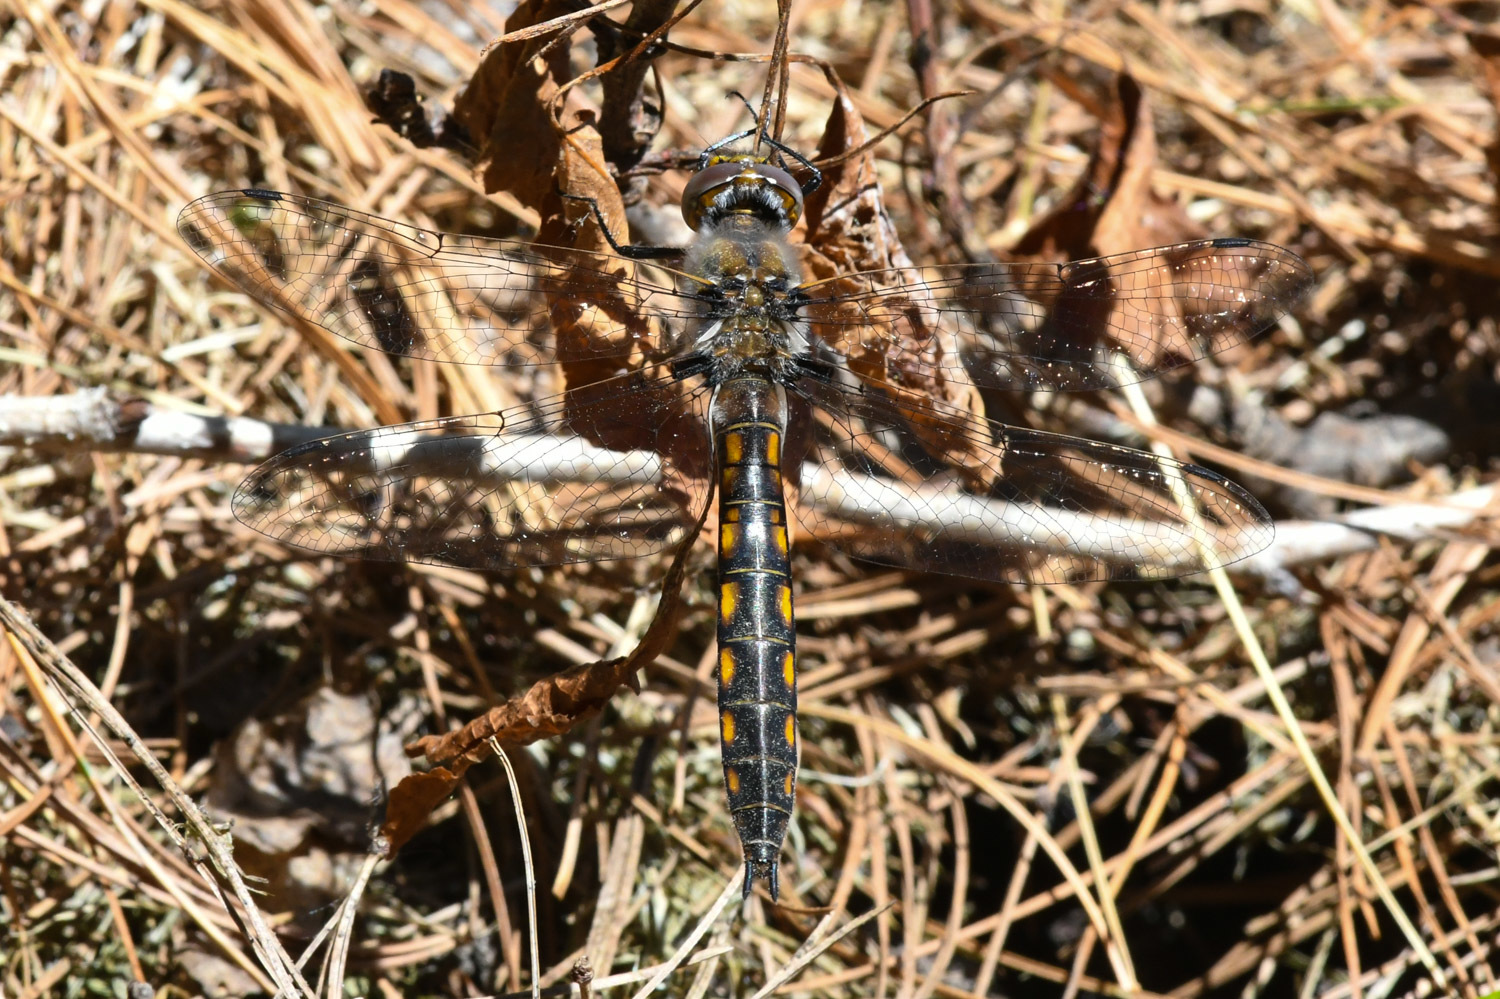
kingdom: Animalia
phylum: Arthropoda
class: Insecta
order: Odonata
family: Corduliidae
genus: Epitheca
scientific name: Epitheca cynosura
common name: Common baskettail
